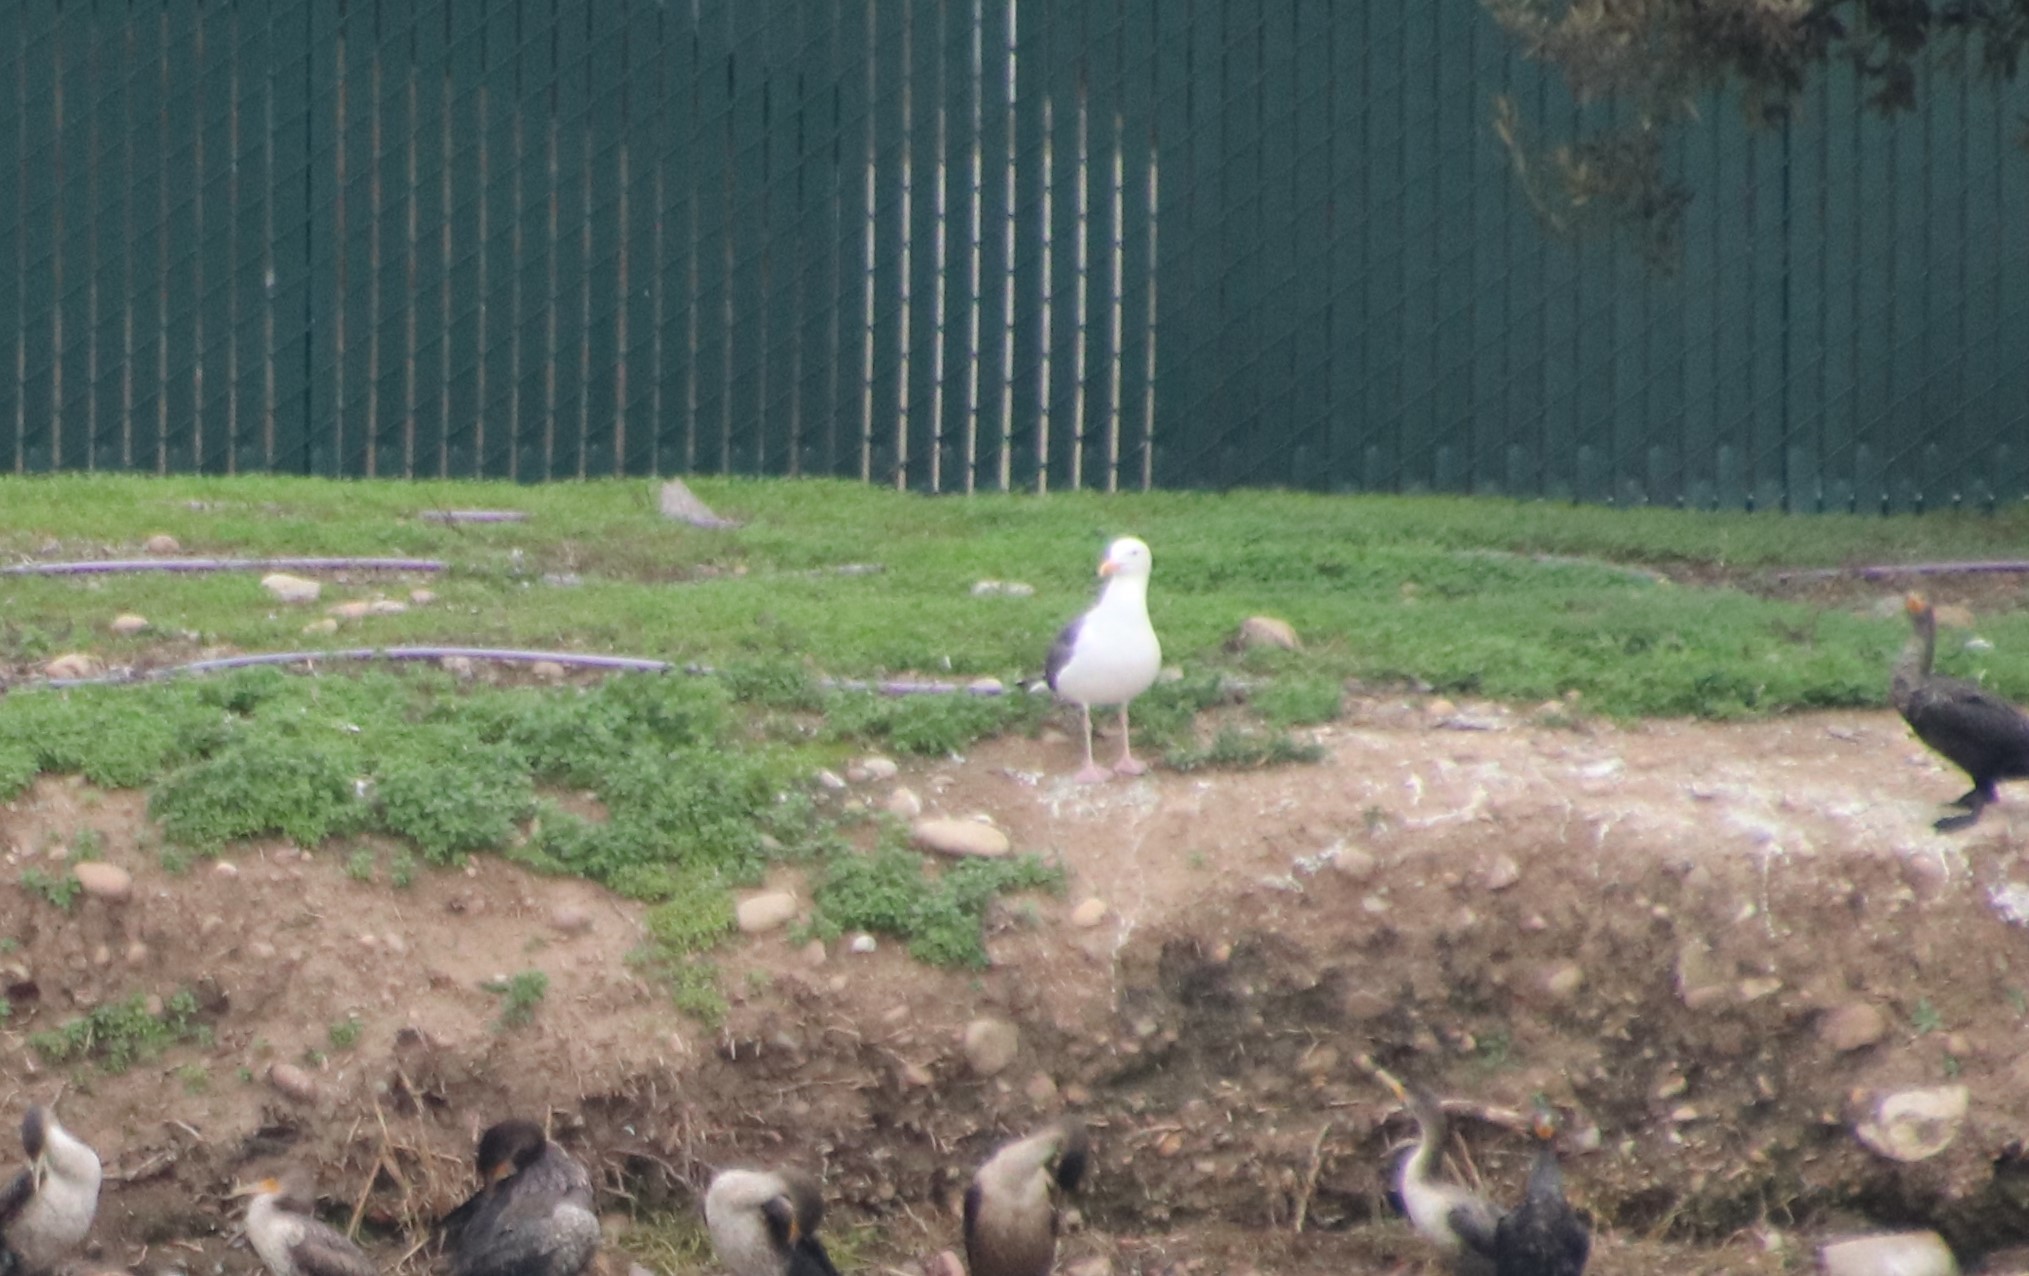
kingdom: Animalia
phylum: Chordata
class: Aves
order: Charadriiformes
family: Laridae
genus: Larus
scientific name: Larus occidentalis
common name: Western gull
